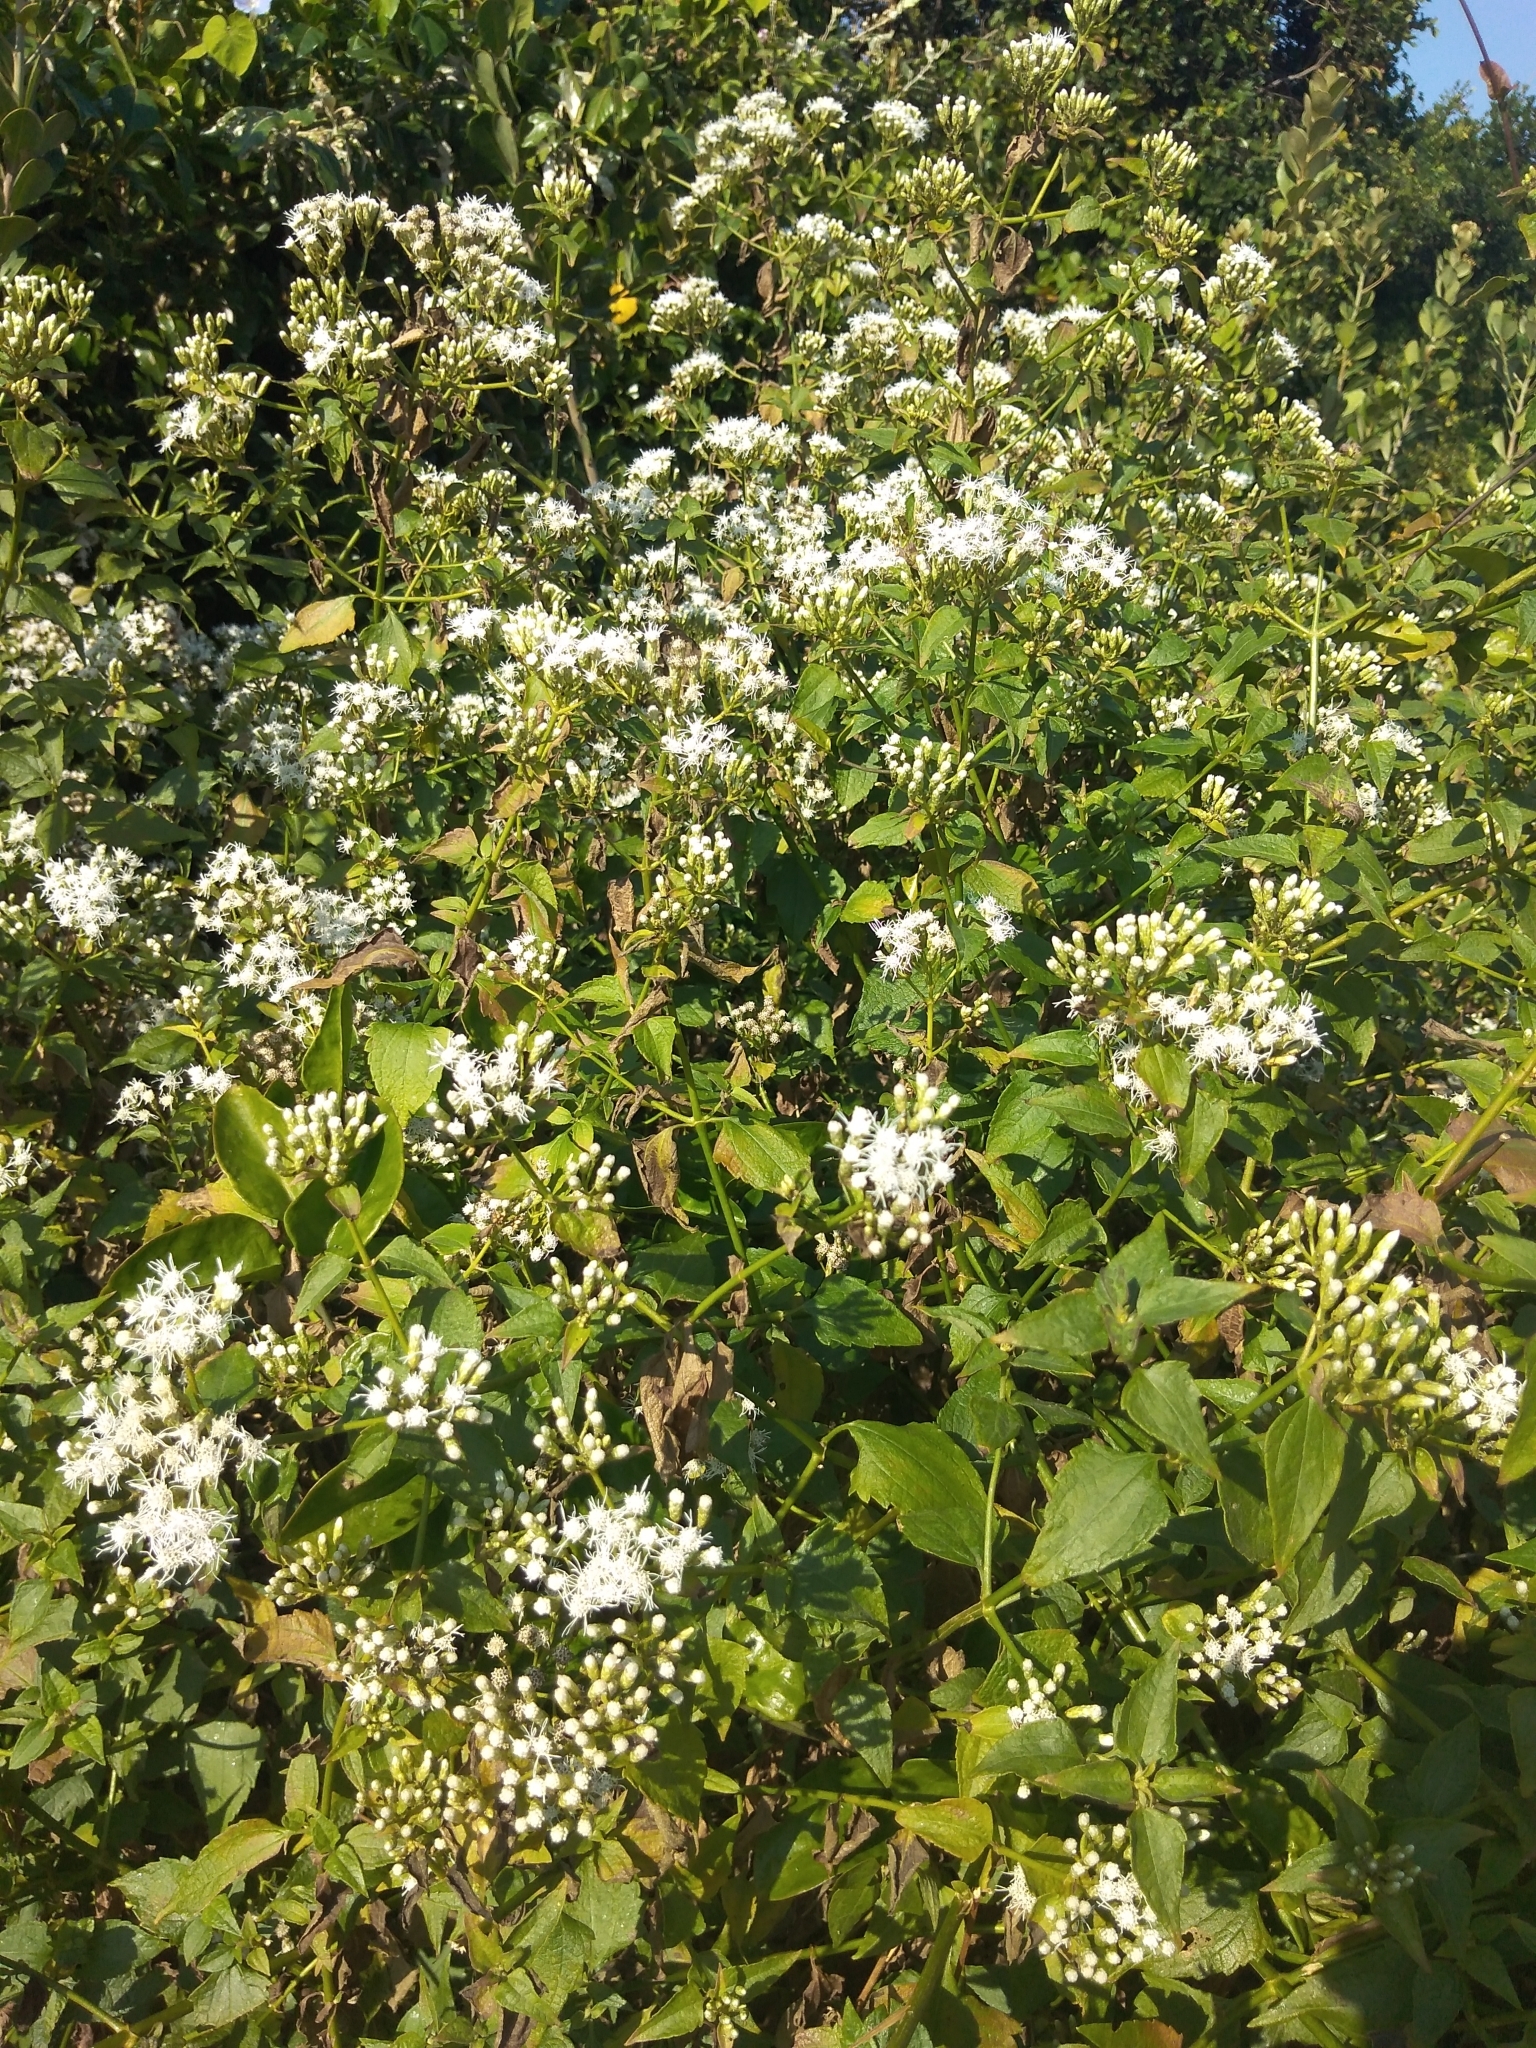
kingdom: Plantae
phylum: Tracheophyta
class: Magnoliopsida
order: Asterales
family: Asteraceae
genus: Chromolaena
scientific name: Chromolaena odorata
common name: Siamweed
